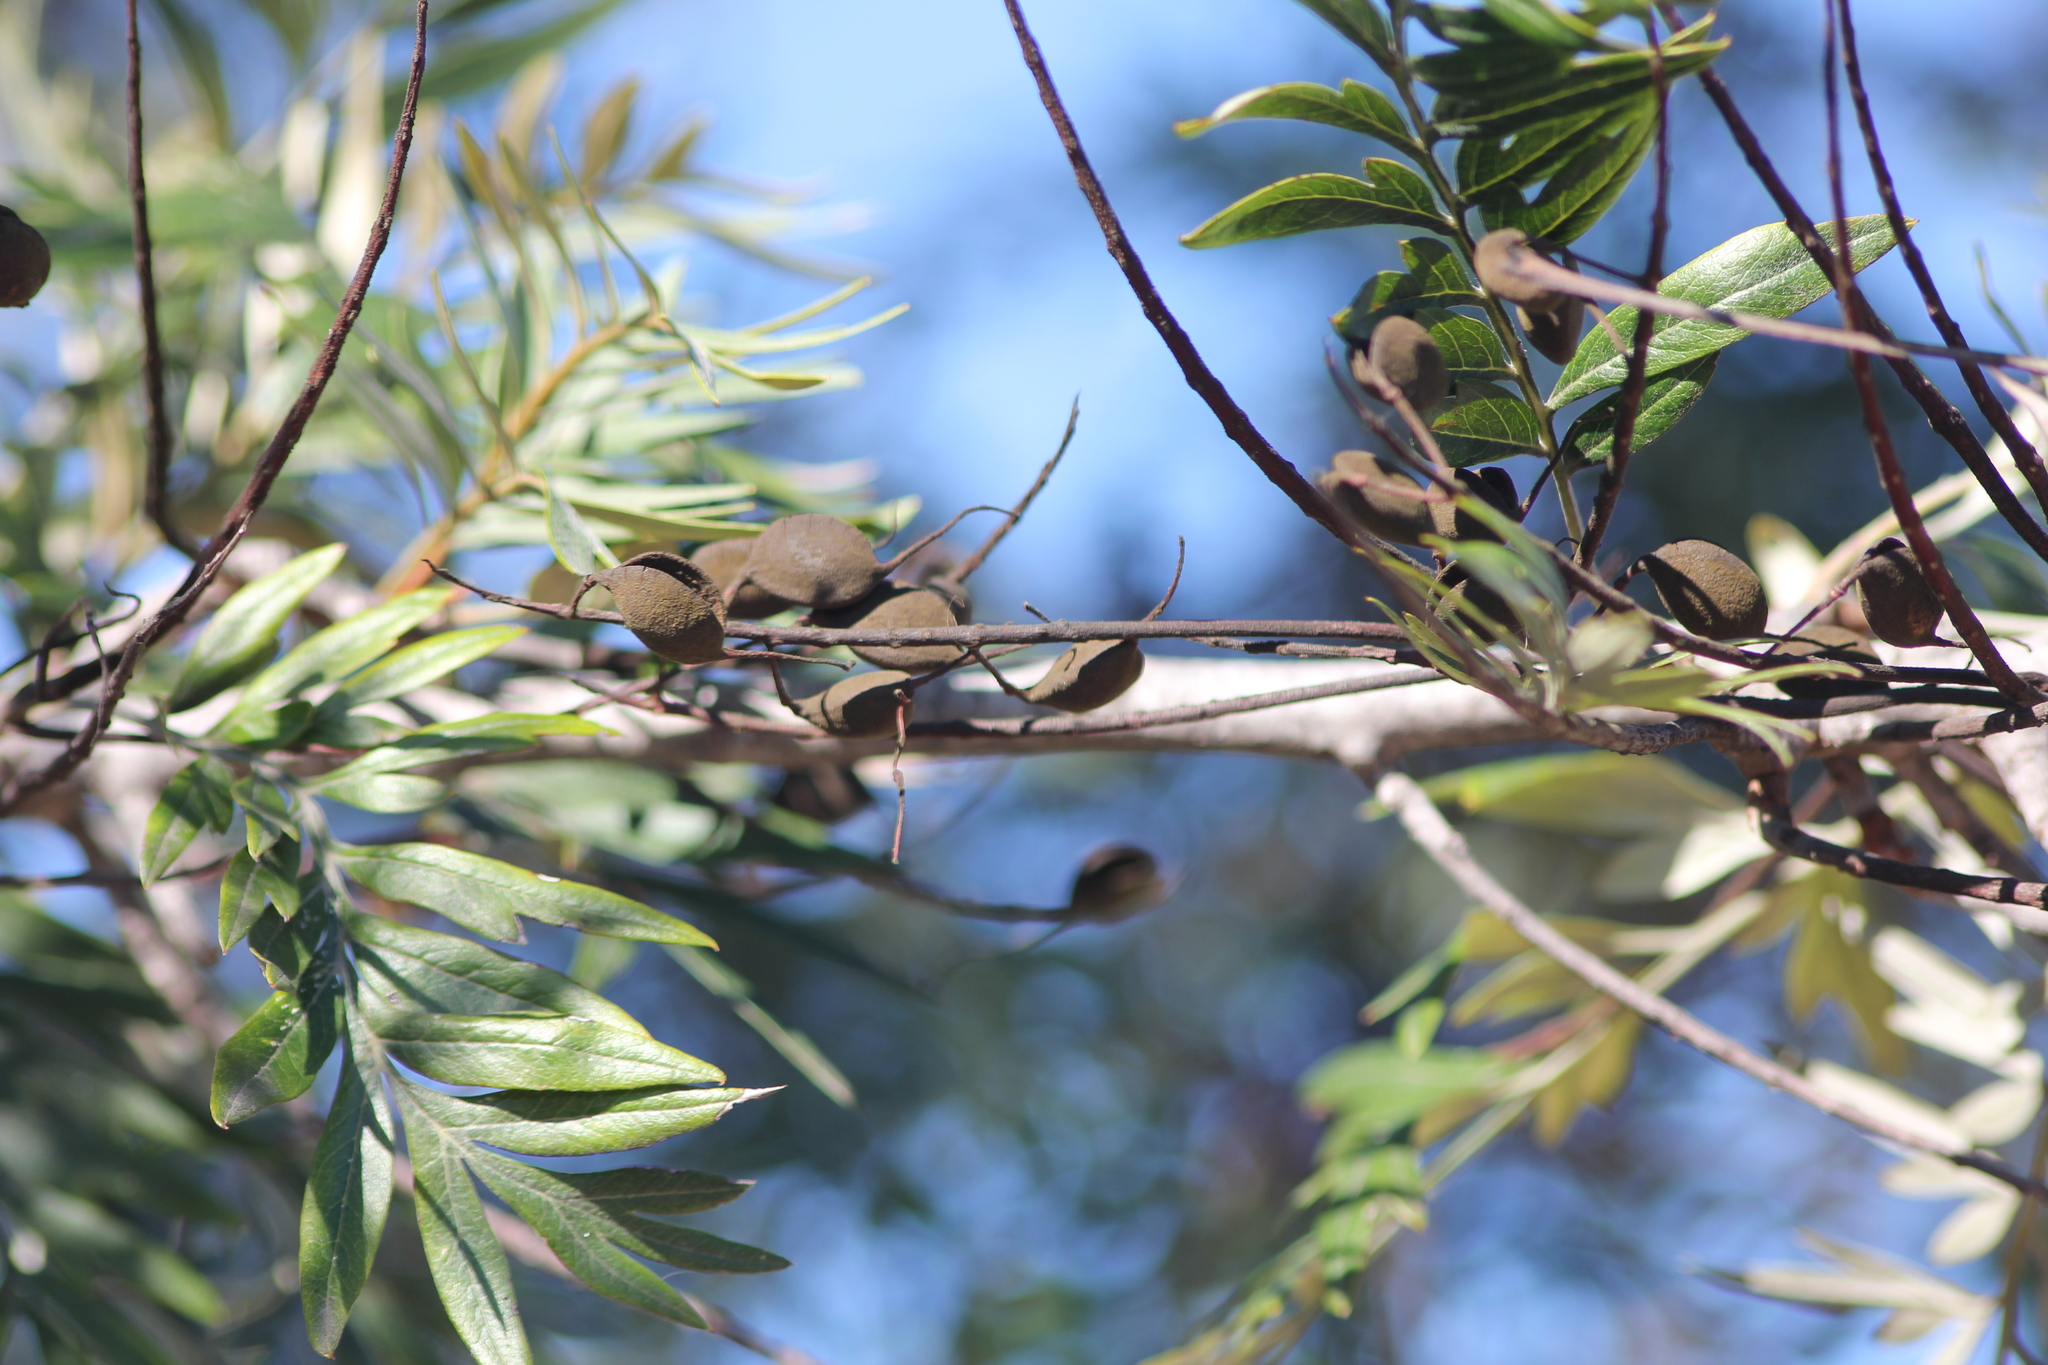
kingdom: Plantae
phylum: Tracheophyta
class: Magnoliopsida
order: Proteales
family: Proteaceae
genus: Grevillea
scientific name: Grevillea robusta
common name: Silkoak
